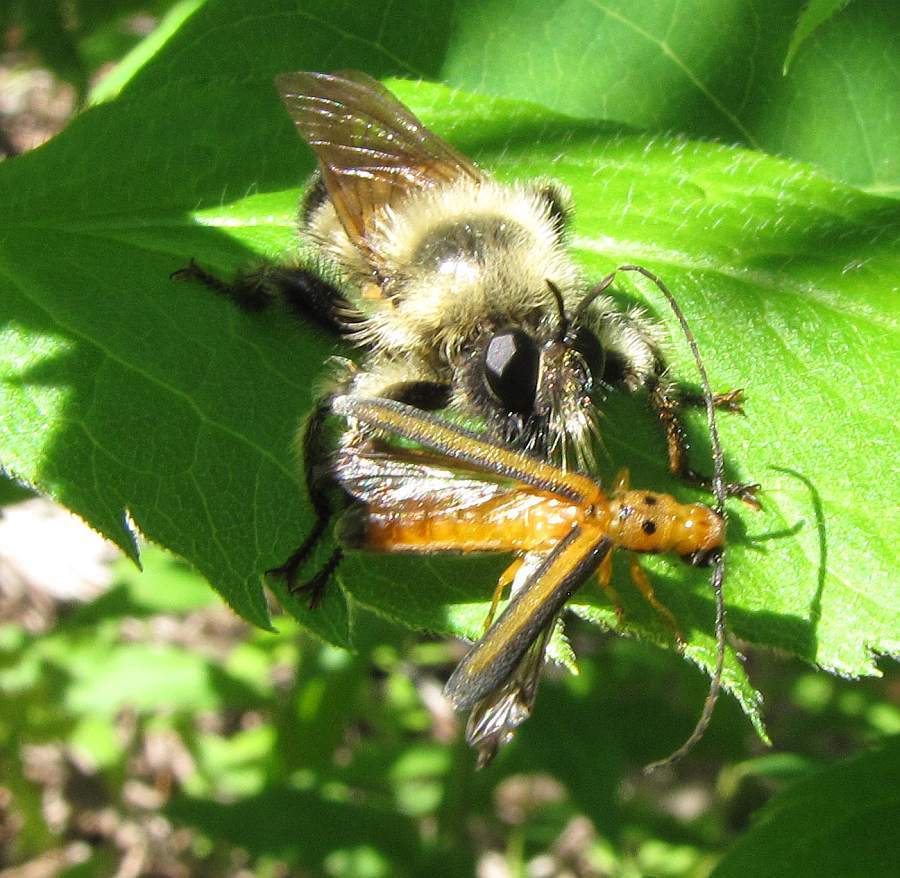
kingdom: Animalia
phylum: Arthropoda
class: Insecta
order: Diptera
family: Asilidae
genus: Laphria
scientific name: Laphria sacrator
